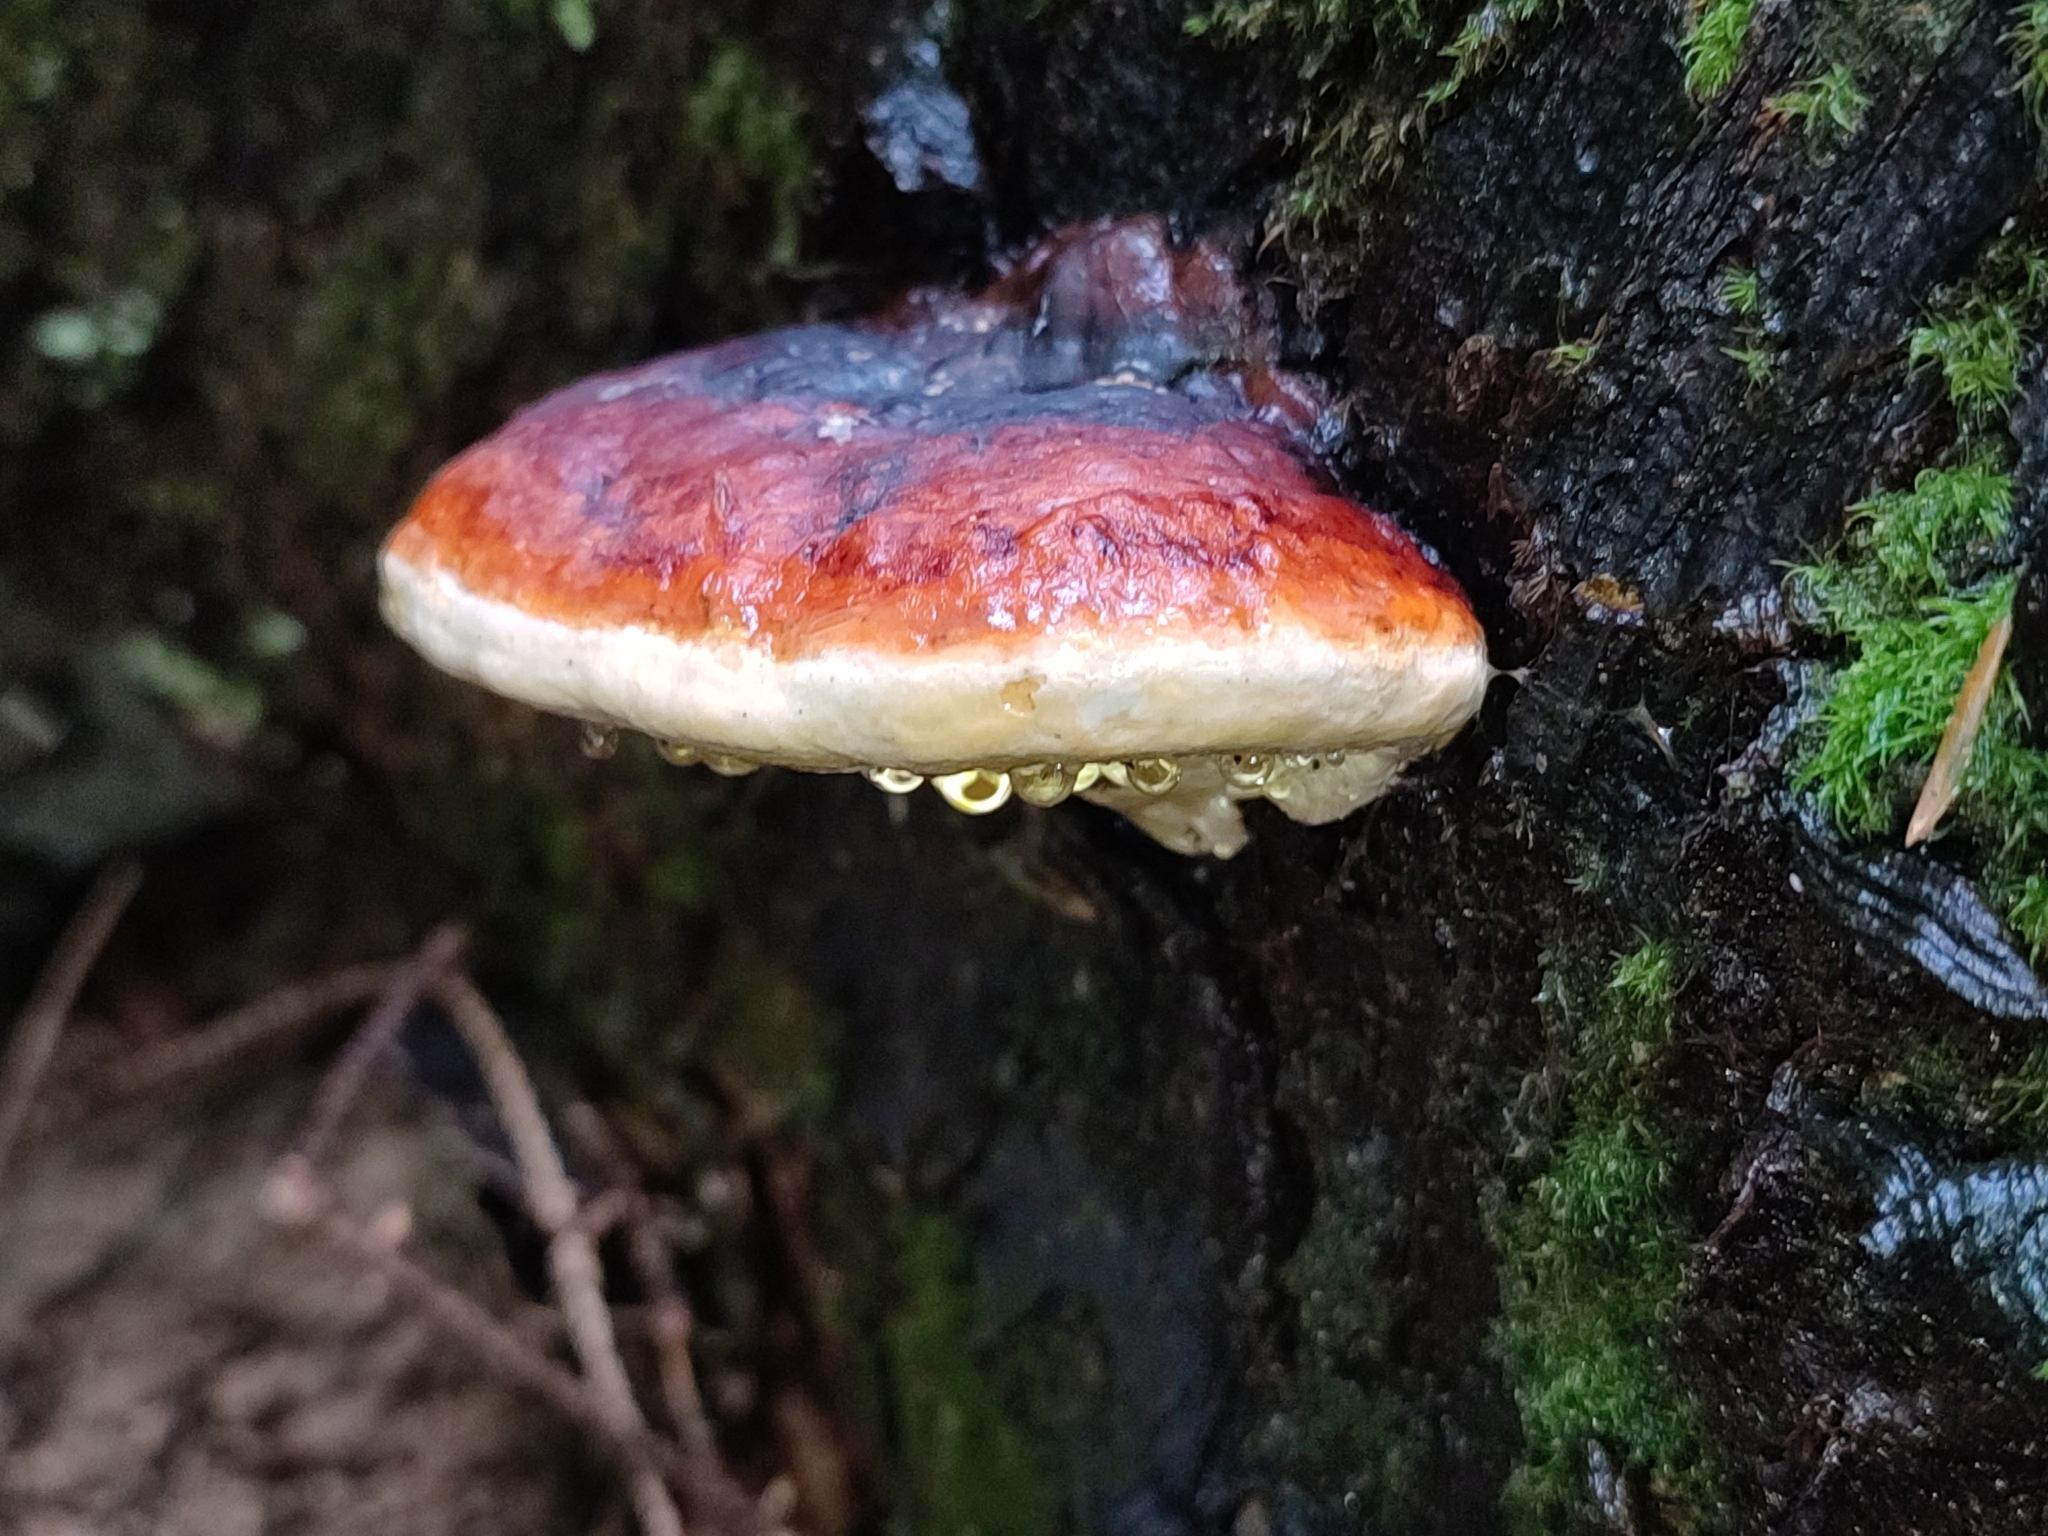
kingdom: Fungi
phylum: Basidiomycota
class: Agaricomycetes
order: Polyporales
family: Fomitopsidaceae
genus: Fomitopsis
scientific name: Fomitopsis pinicola
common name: Red-belted bracket
